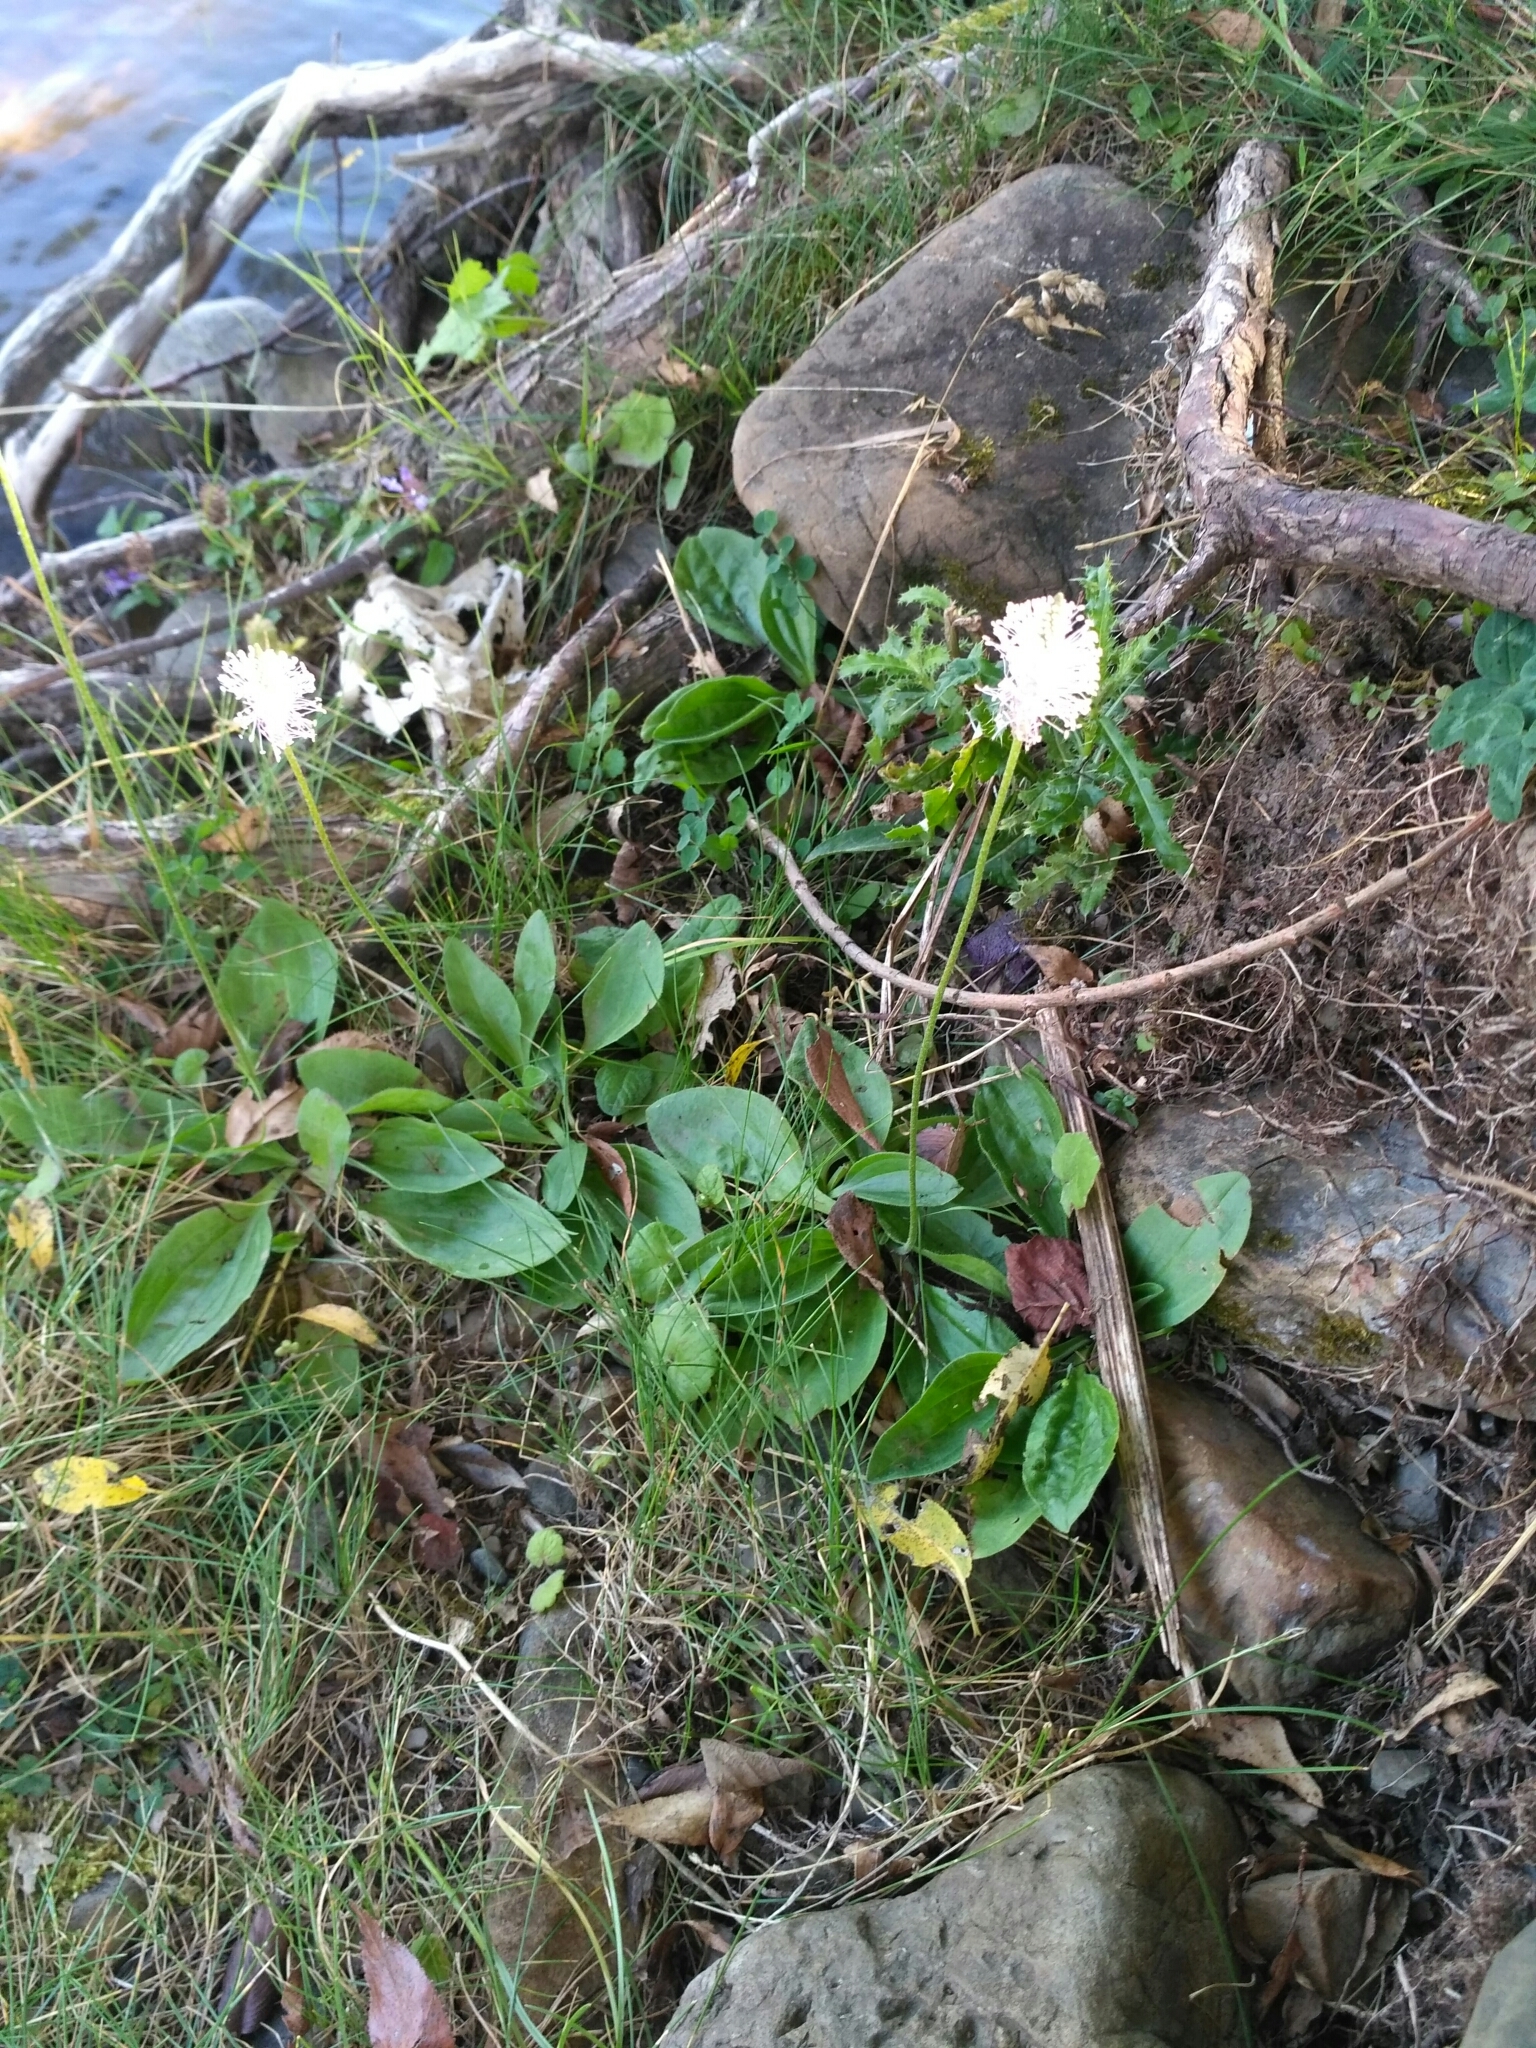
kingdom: Plantae
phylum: Tracheophyta
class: Magnoliopsida
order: Lamiales
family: Plantaginaceae
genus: Plantago
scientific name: Plantago media
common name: Hoary plantain
